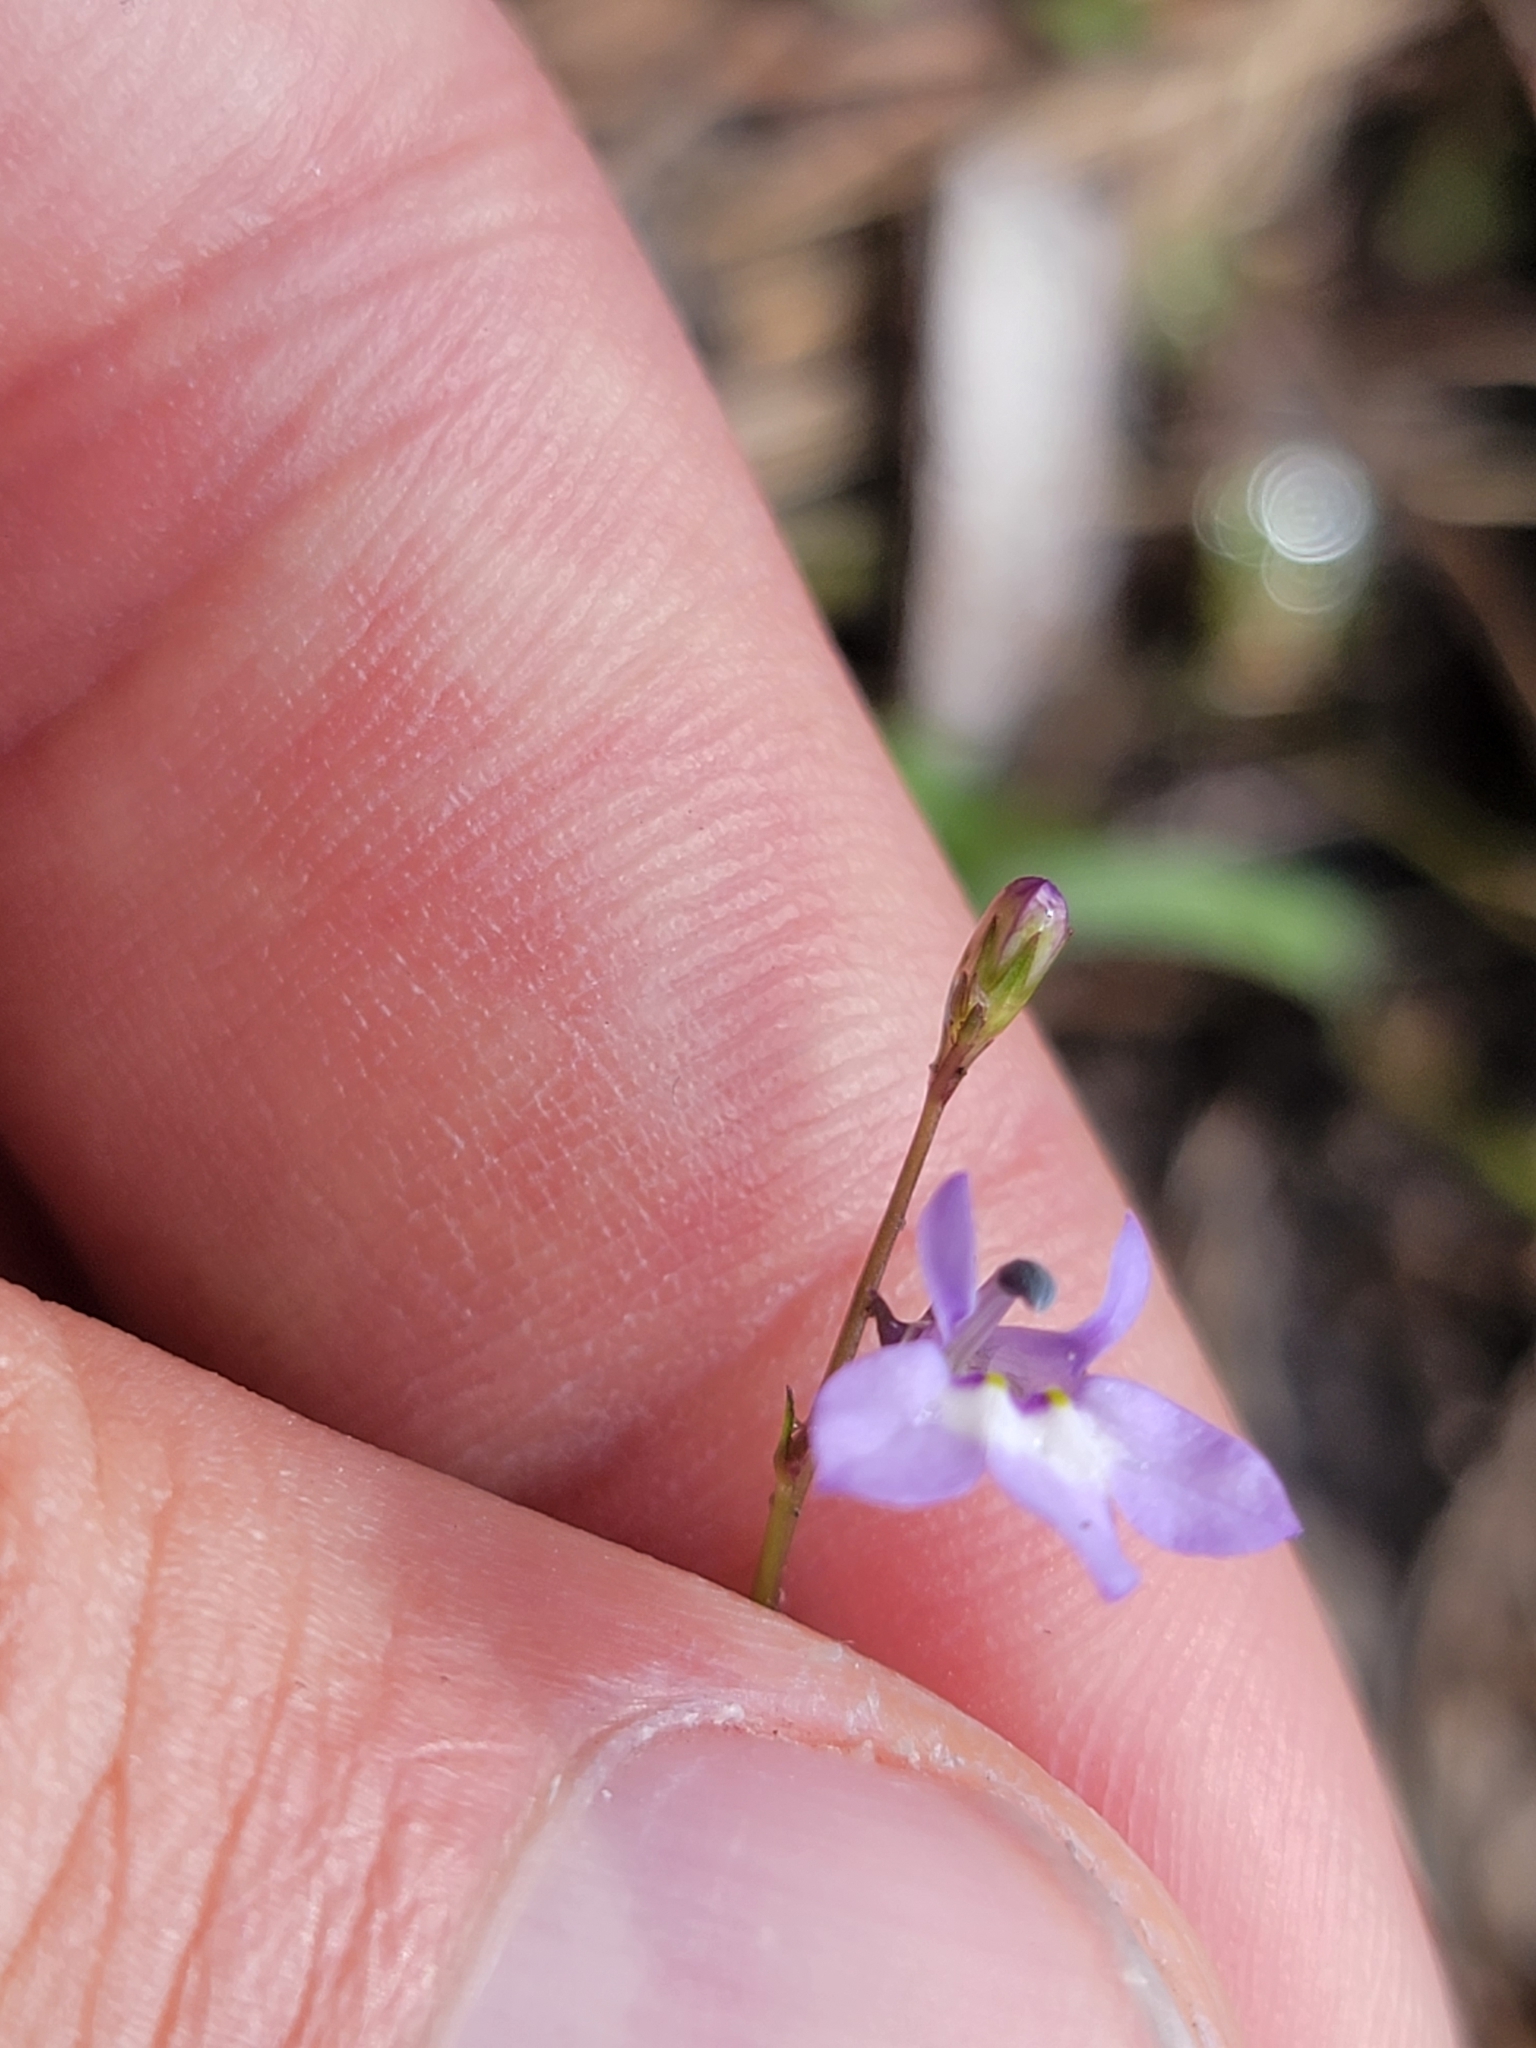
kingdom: Plantae
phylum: Tracheophyta
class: Magnoliopsida
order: Asterales
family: Campanulaceae
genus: Lobelia
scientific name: Lobelia feayana
